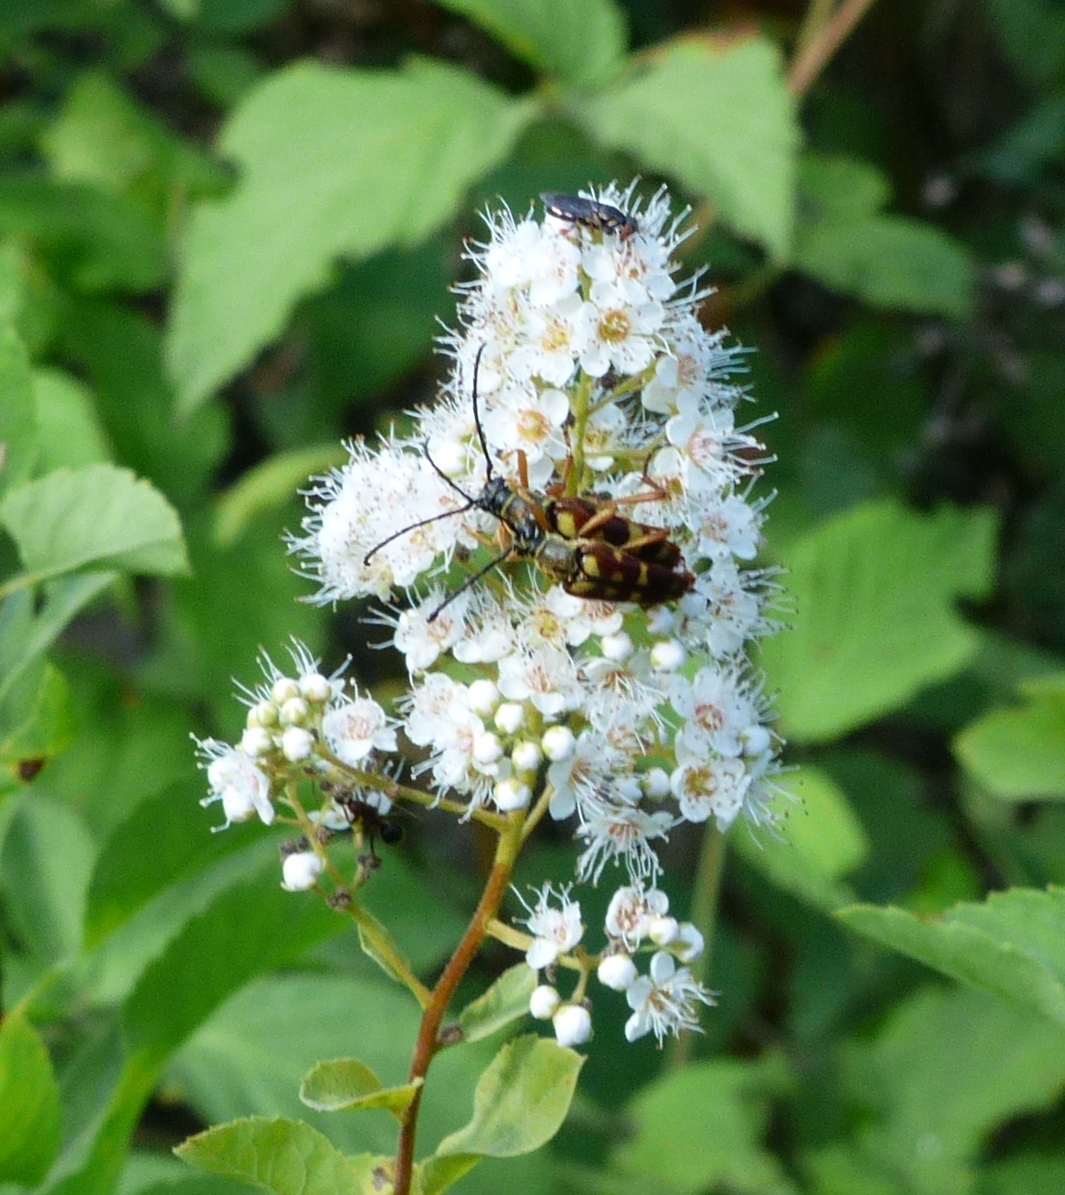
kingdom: Animalia
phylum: Arthropoda
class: Insecta
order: Coleoptera
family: Cerambycidae
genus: Typocerus
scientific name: Typocerus velutinus
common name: Banded longhorn beetle
